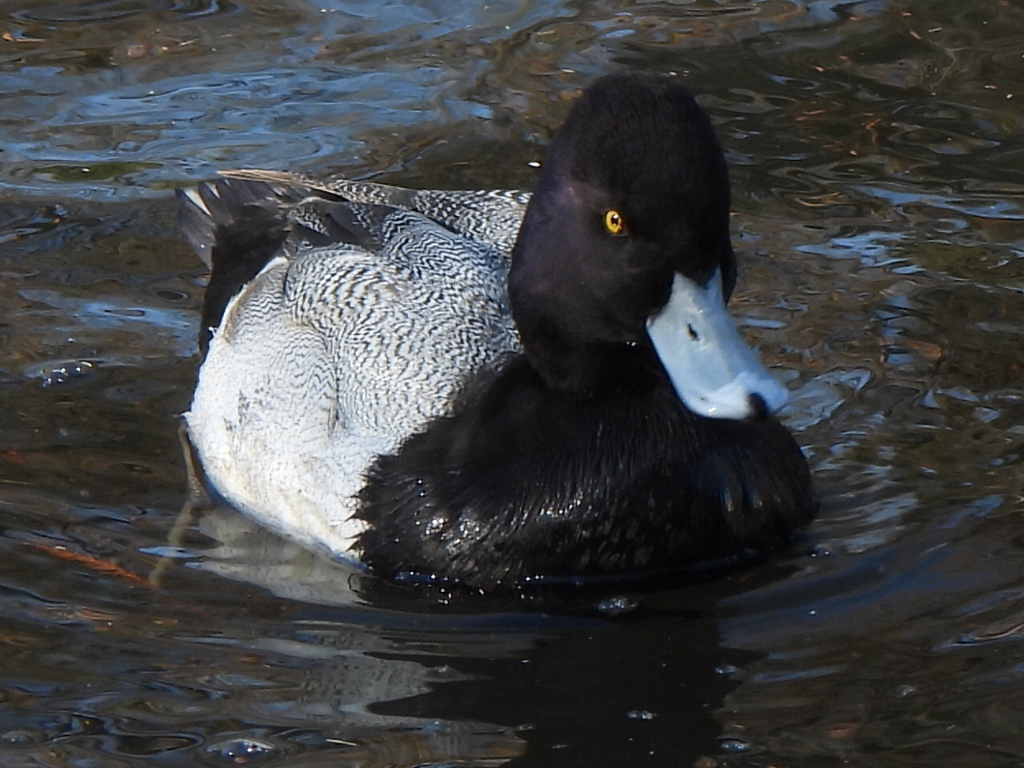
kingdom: Animalia
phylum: Chordata
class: Aves
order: Anseriformes
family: Anatidae
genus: Aythya
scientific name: Aythya affinis
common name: Lesser scaup
